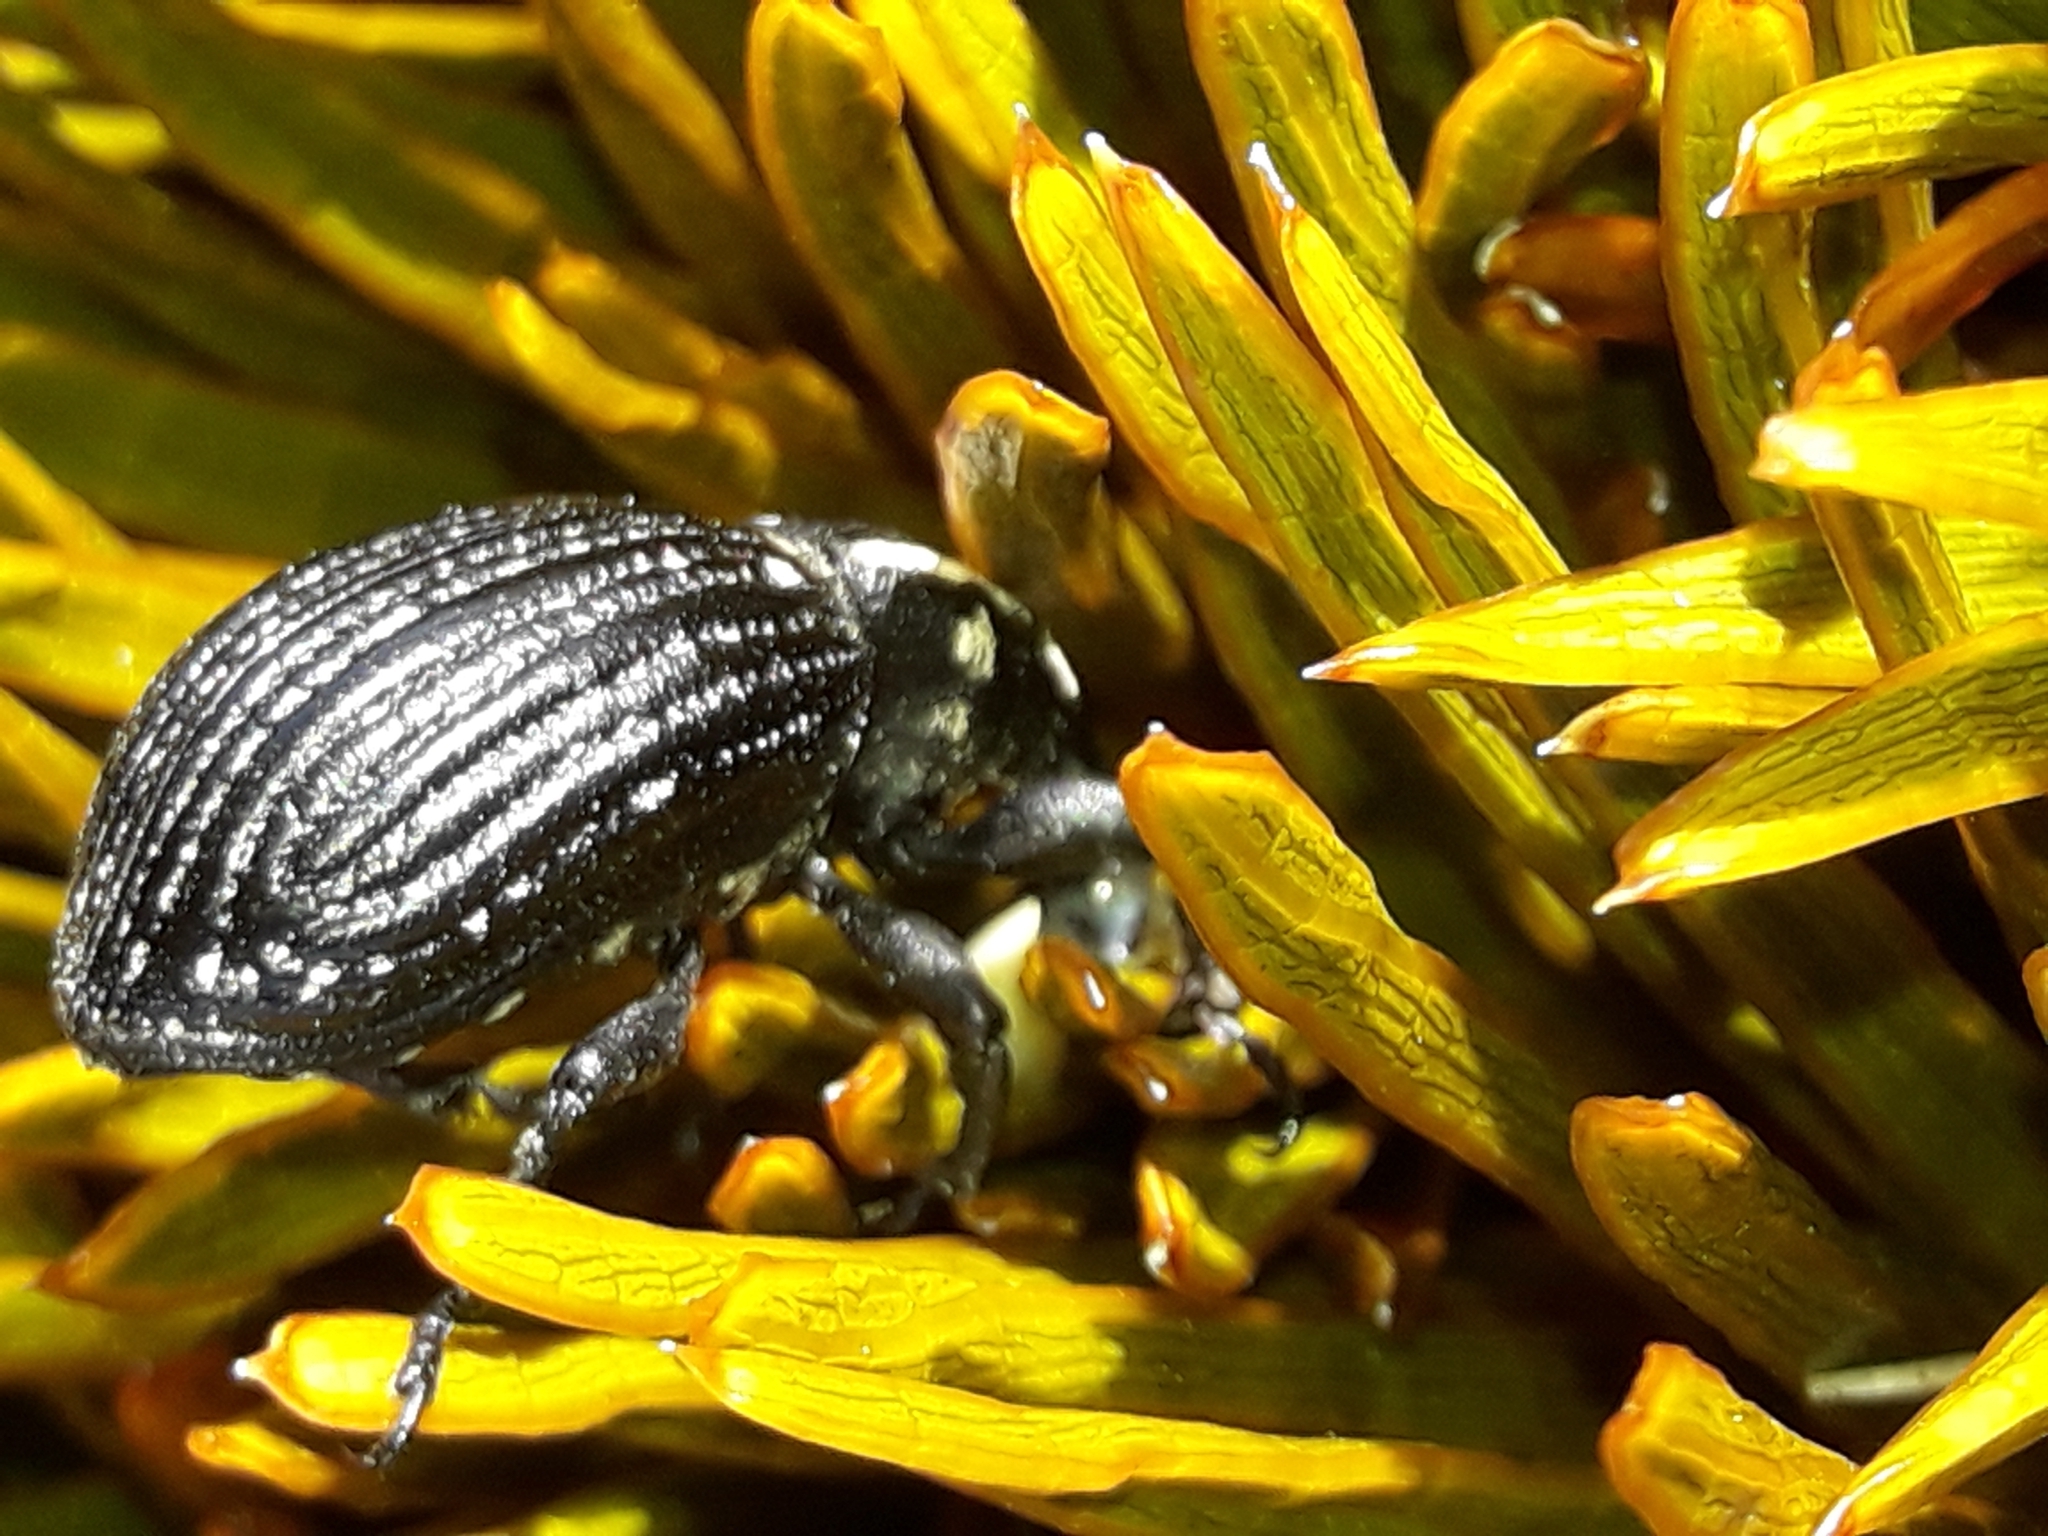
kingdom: Animalia
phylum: Arthropoda
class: Insecta
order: Coleoptera
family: Curculionidae
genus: Lyperobius
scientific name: Lyperobius hudsoni
